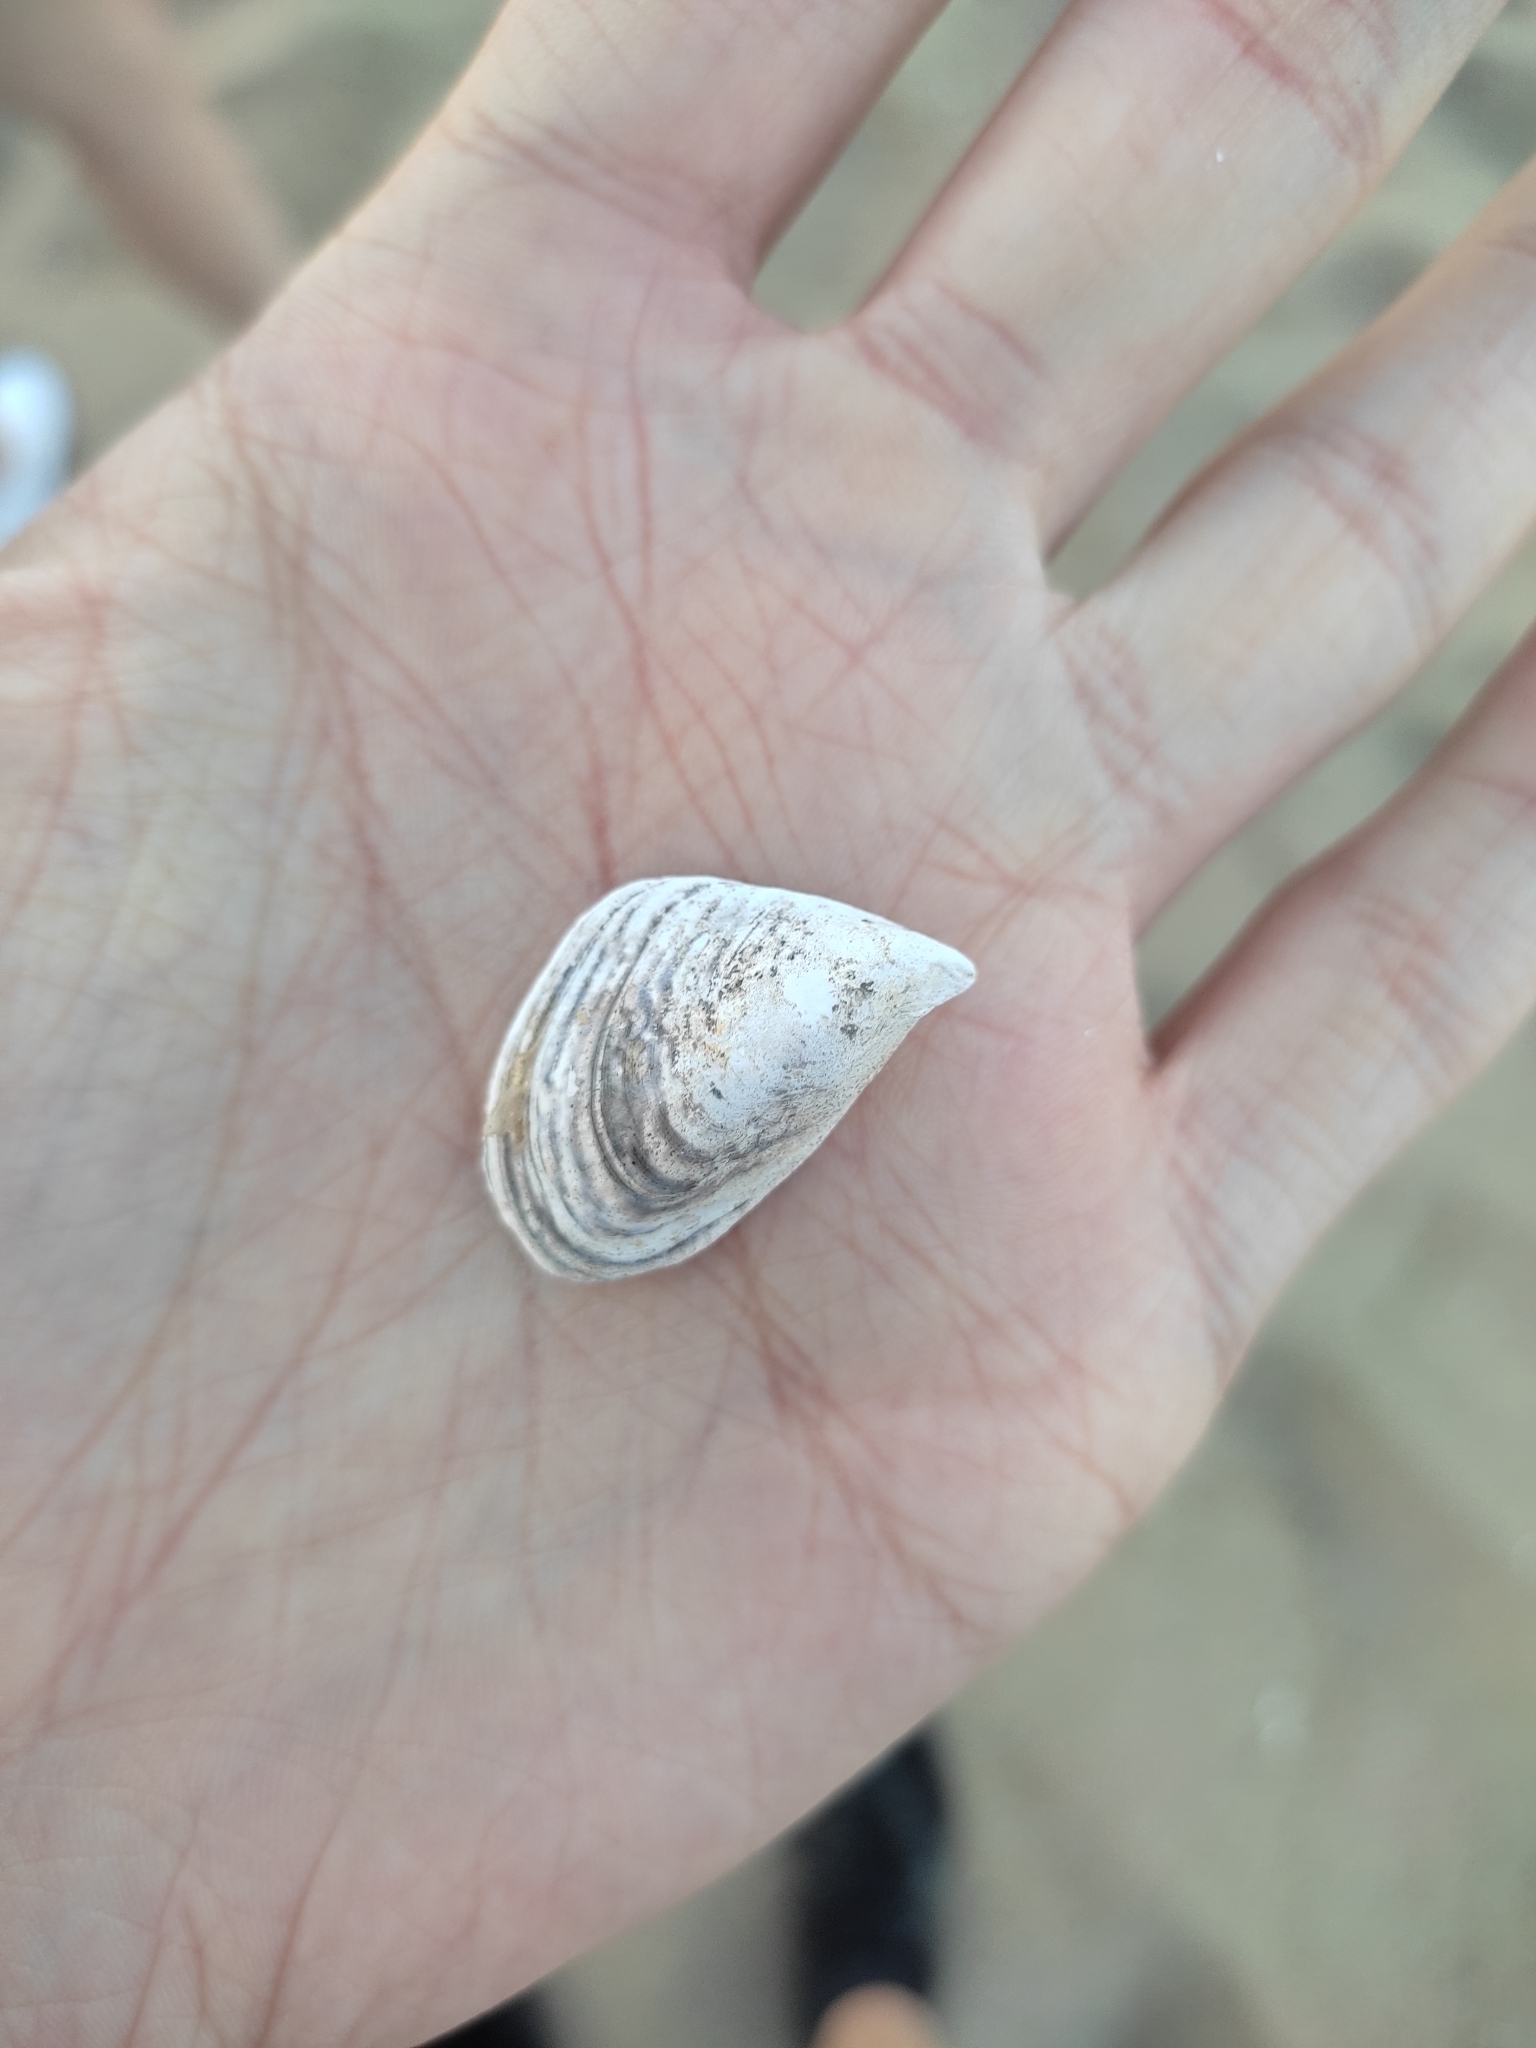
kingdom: Animalia
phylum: Mollusca
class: Bivalvia
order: Myida
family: Dreissenidae
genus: Dreissena
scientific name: Dreissena bugensis
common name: Quagga mussel
